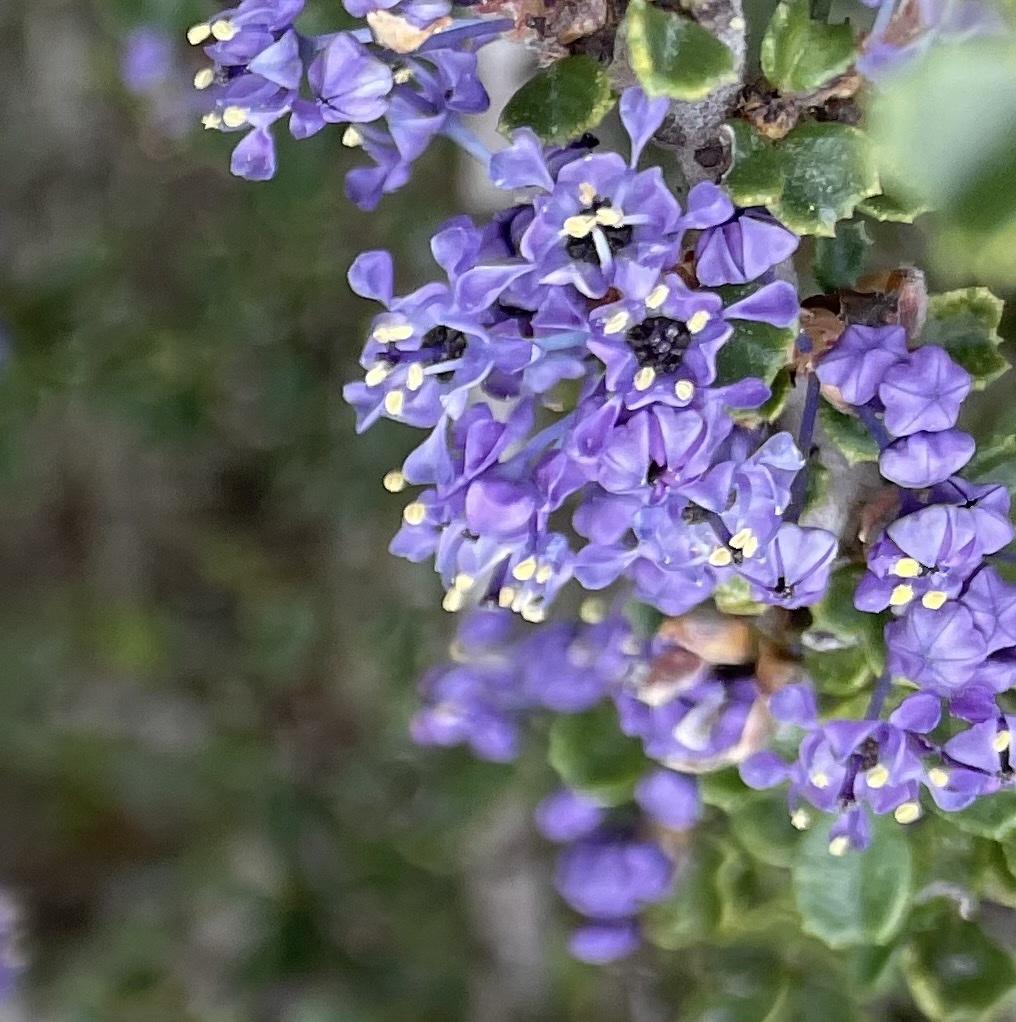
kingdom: Plantae
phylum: Tracheophyta
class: Magnoliopsida
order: Rosales
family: Rhamnaceae
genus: Ceanothus
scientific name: Ceanothus cuneatus
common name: Cuneate ceanothus
